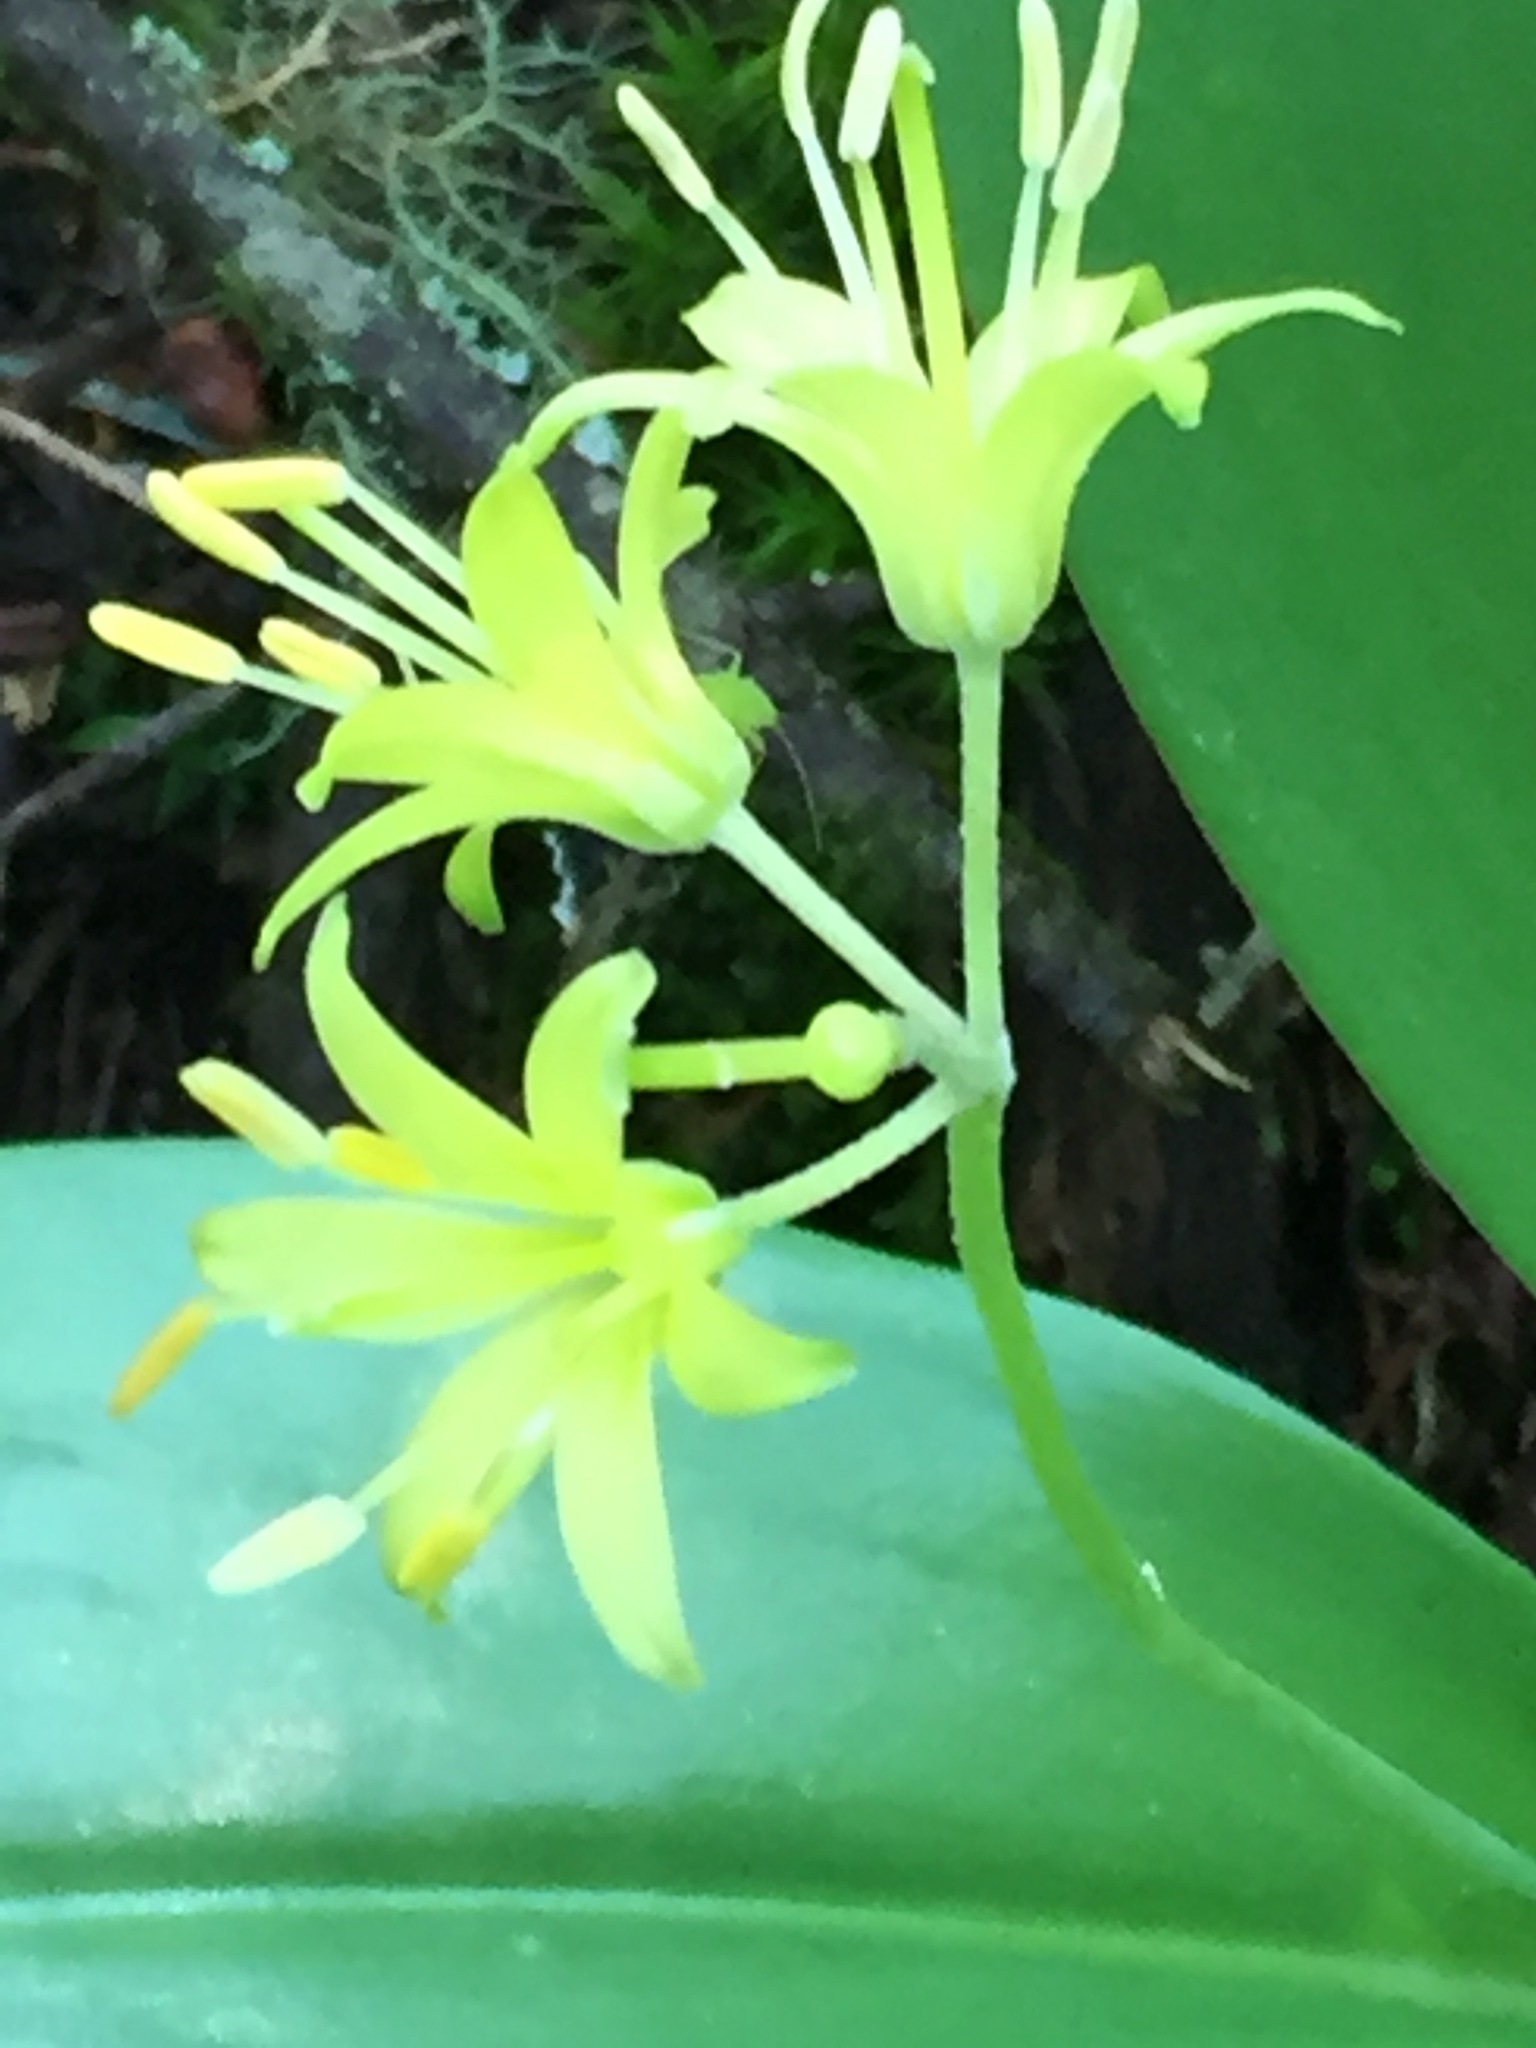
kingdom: Plantae
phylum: Tracheophyta
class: Liliopsida
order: Liliales
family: Liliaceae
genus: Clintonia
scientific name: Clintonia borealis
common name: Yellow clintonia
